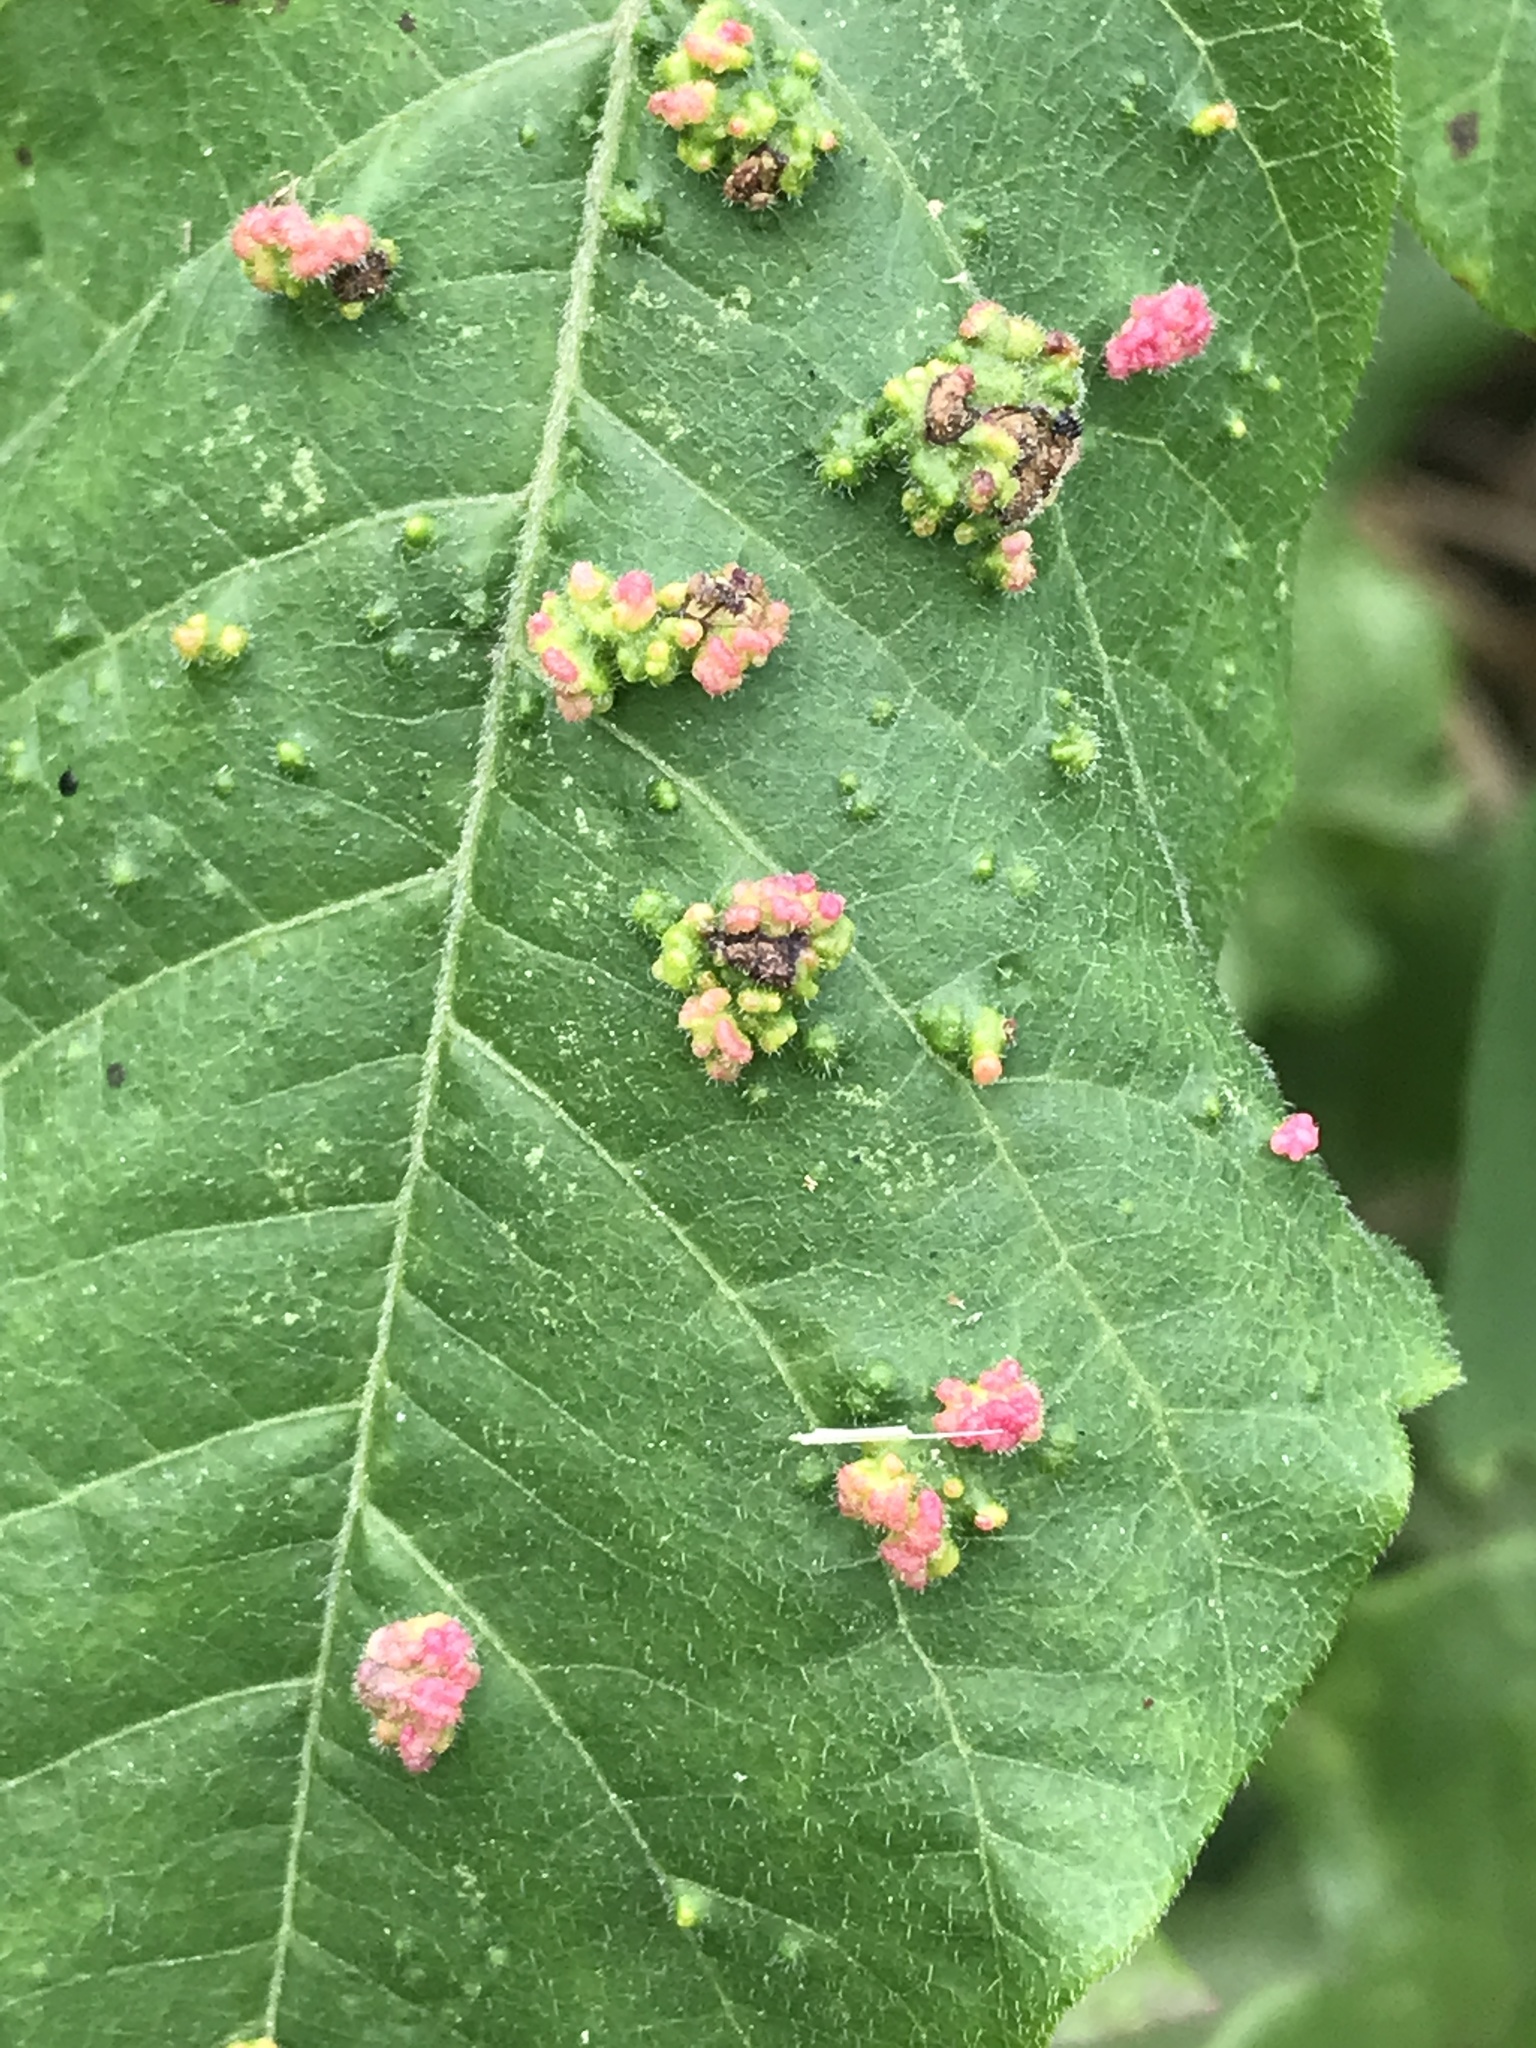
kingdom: Animalia
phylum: Arthropoda
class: Arachnida
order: Trombidiformes
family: Eriophyidae
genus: Aculops
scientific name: Aculops
